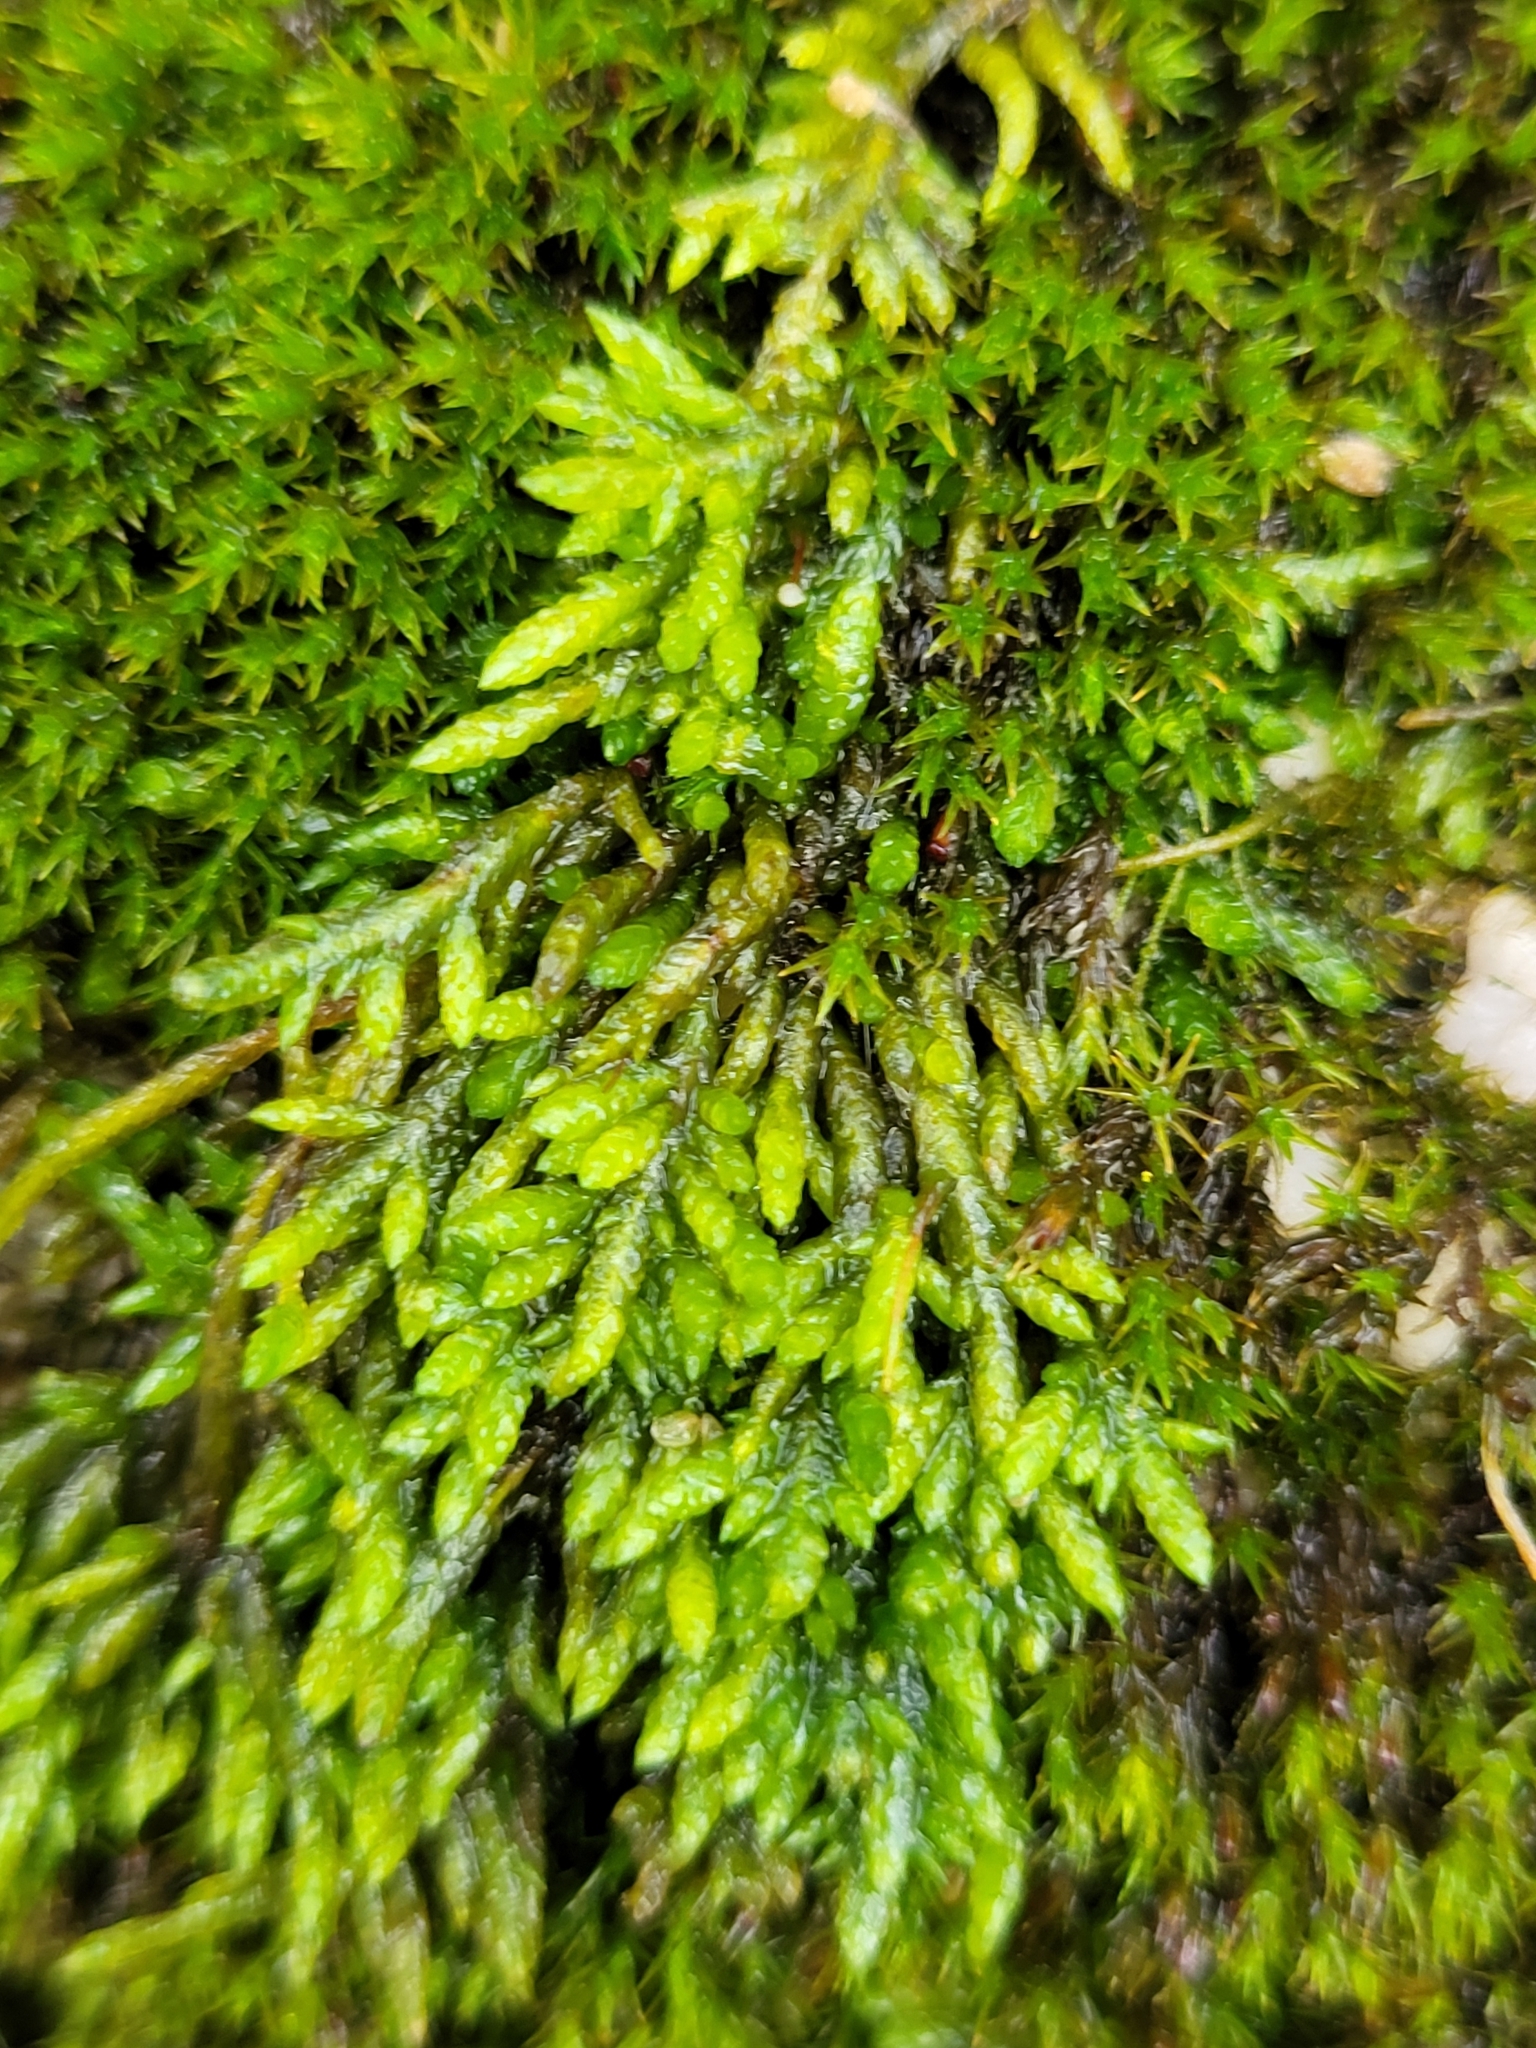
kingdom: Plantae
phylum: Bryophyta
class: Bryopsida
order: Hypnales
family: Entodontaceae
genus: Entodon
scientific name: Entodon seductrix
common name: Round-stemmed entodon moss
